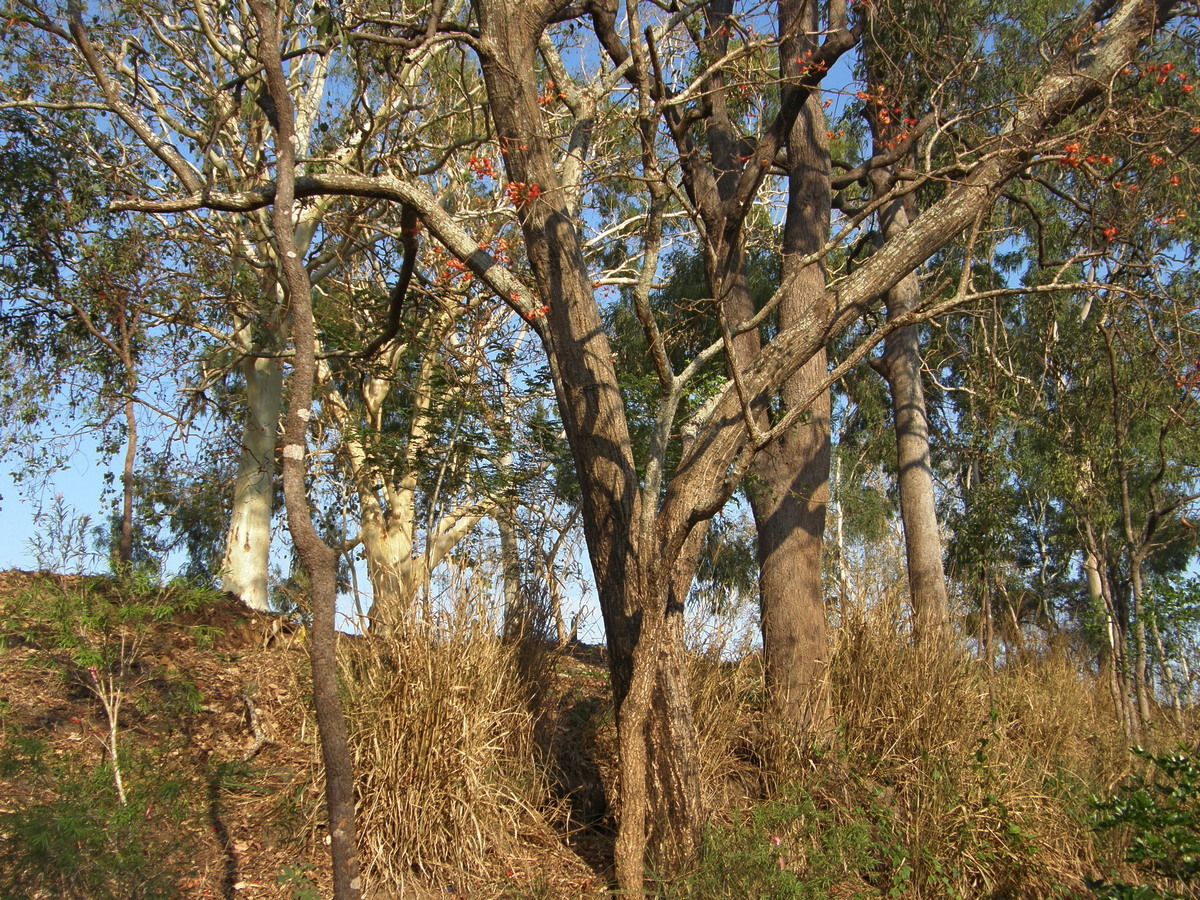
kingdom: Plantae
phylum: Tracheophyta
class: Magnoliopsida
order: Fabales
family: Fabaceae
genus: Erythrina
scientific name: Erythrina vespertilio
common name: Bat-wing coral tree
